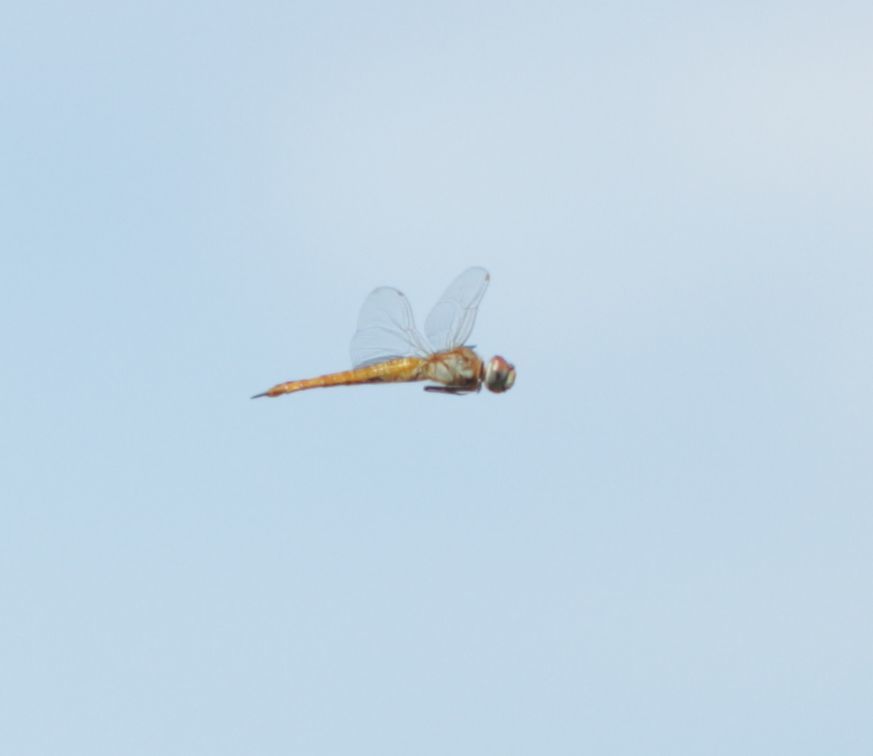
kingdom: Animalia
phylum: Arthropoda
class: Insecta
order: Odonata
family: Libellulidae
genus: Pantala
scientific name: Pantala flavescens
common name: Wandering glider
